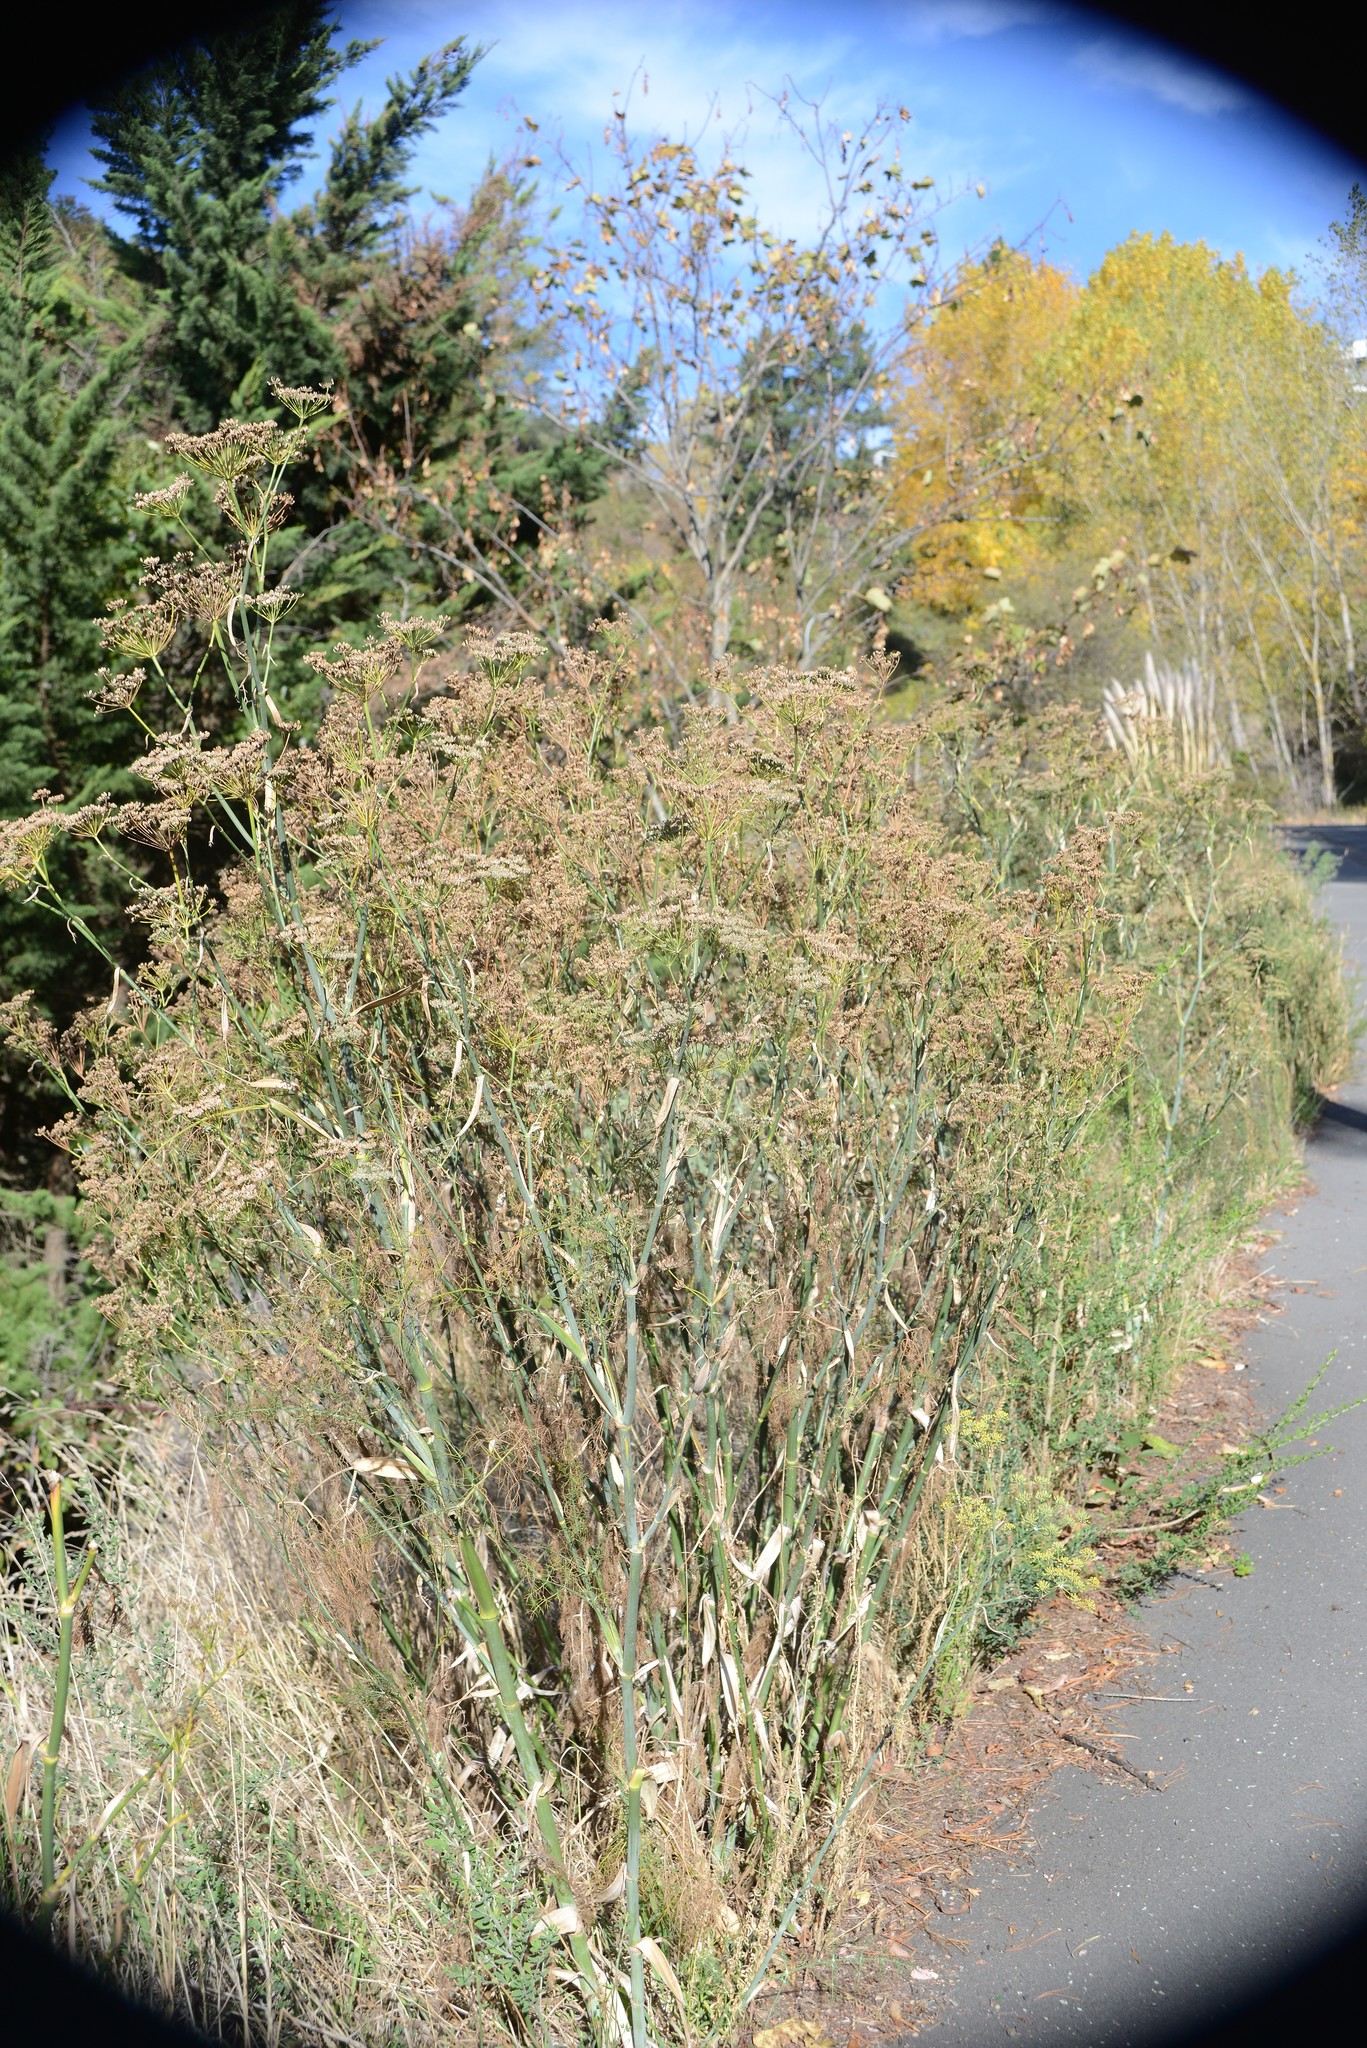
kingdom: Plantae
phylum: Tracheophyta
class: Magnoliopsida
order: Apiales
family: Apiaceae
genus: Foeniculum
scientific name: Foeniculum vulgare
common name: Fennel
